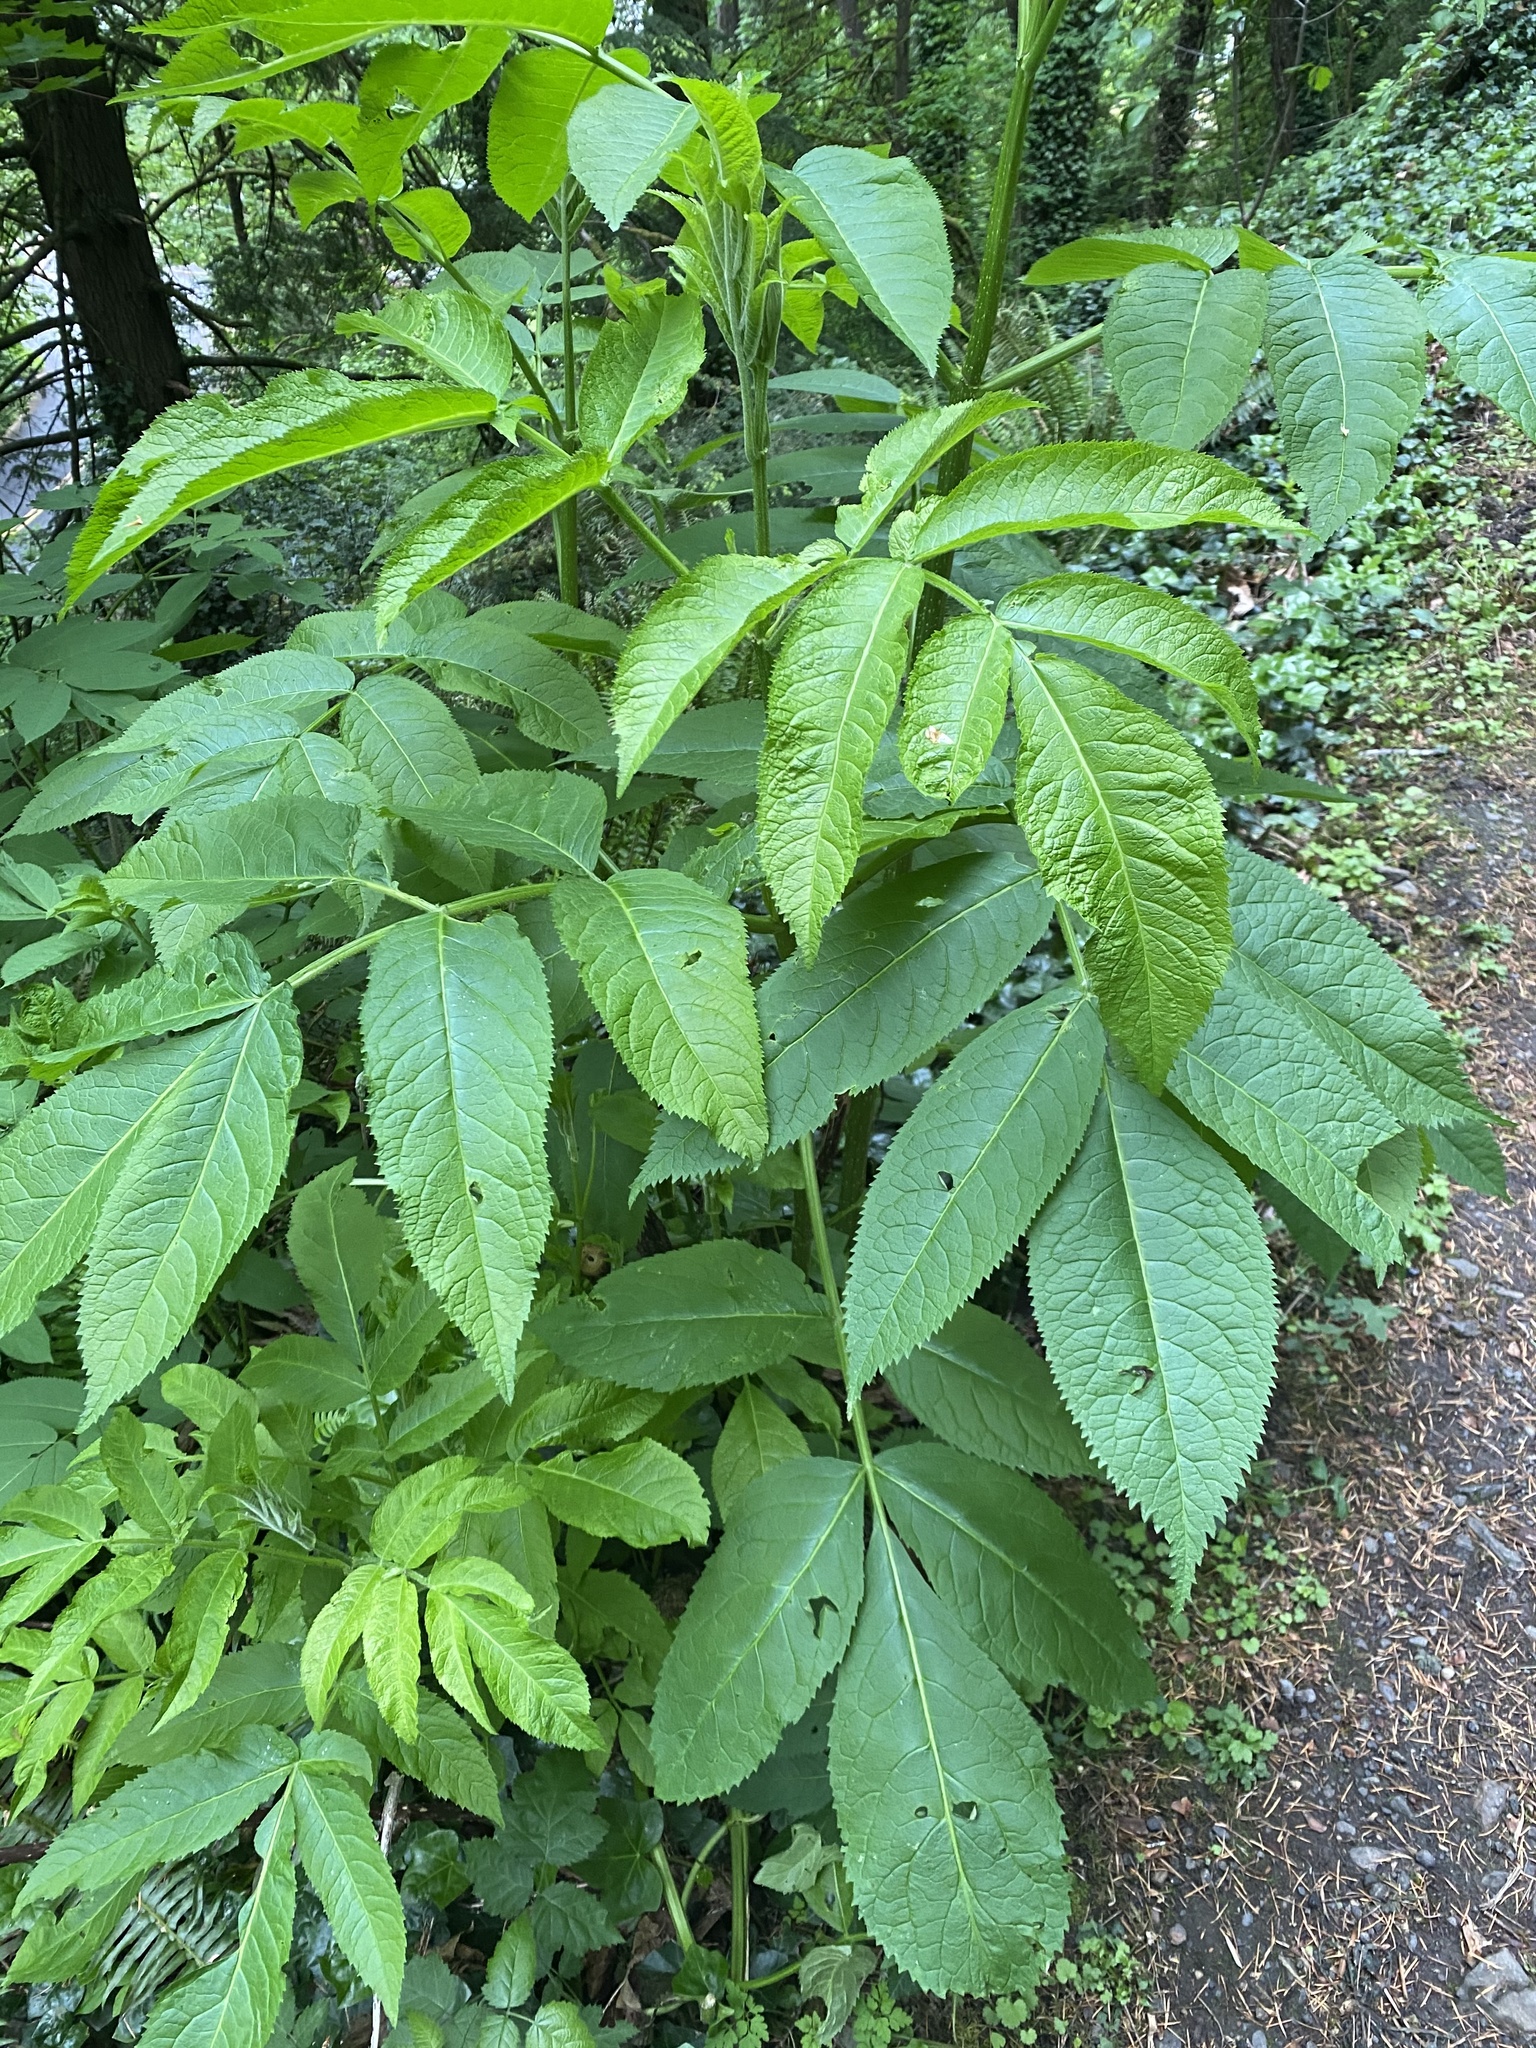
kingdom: Plantae
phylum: Tracheophyta
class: Magnoliopsida
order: Dipsacales
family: Viburnaceae
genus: Sambucus
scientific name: Sambucus racemosa
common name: Red-berried elder
